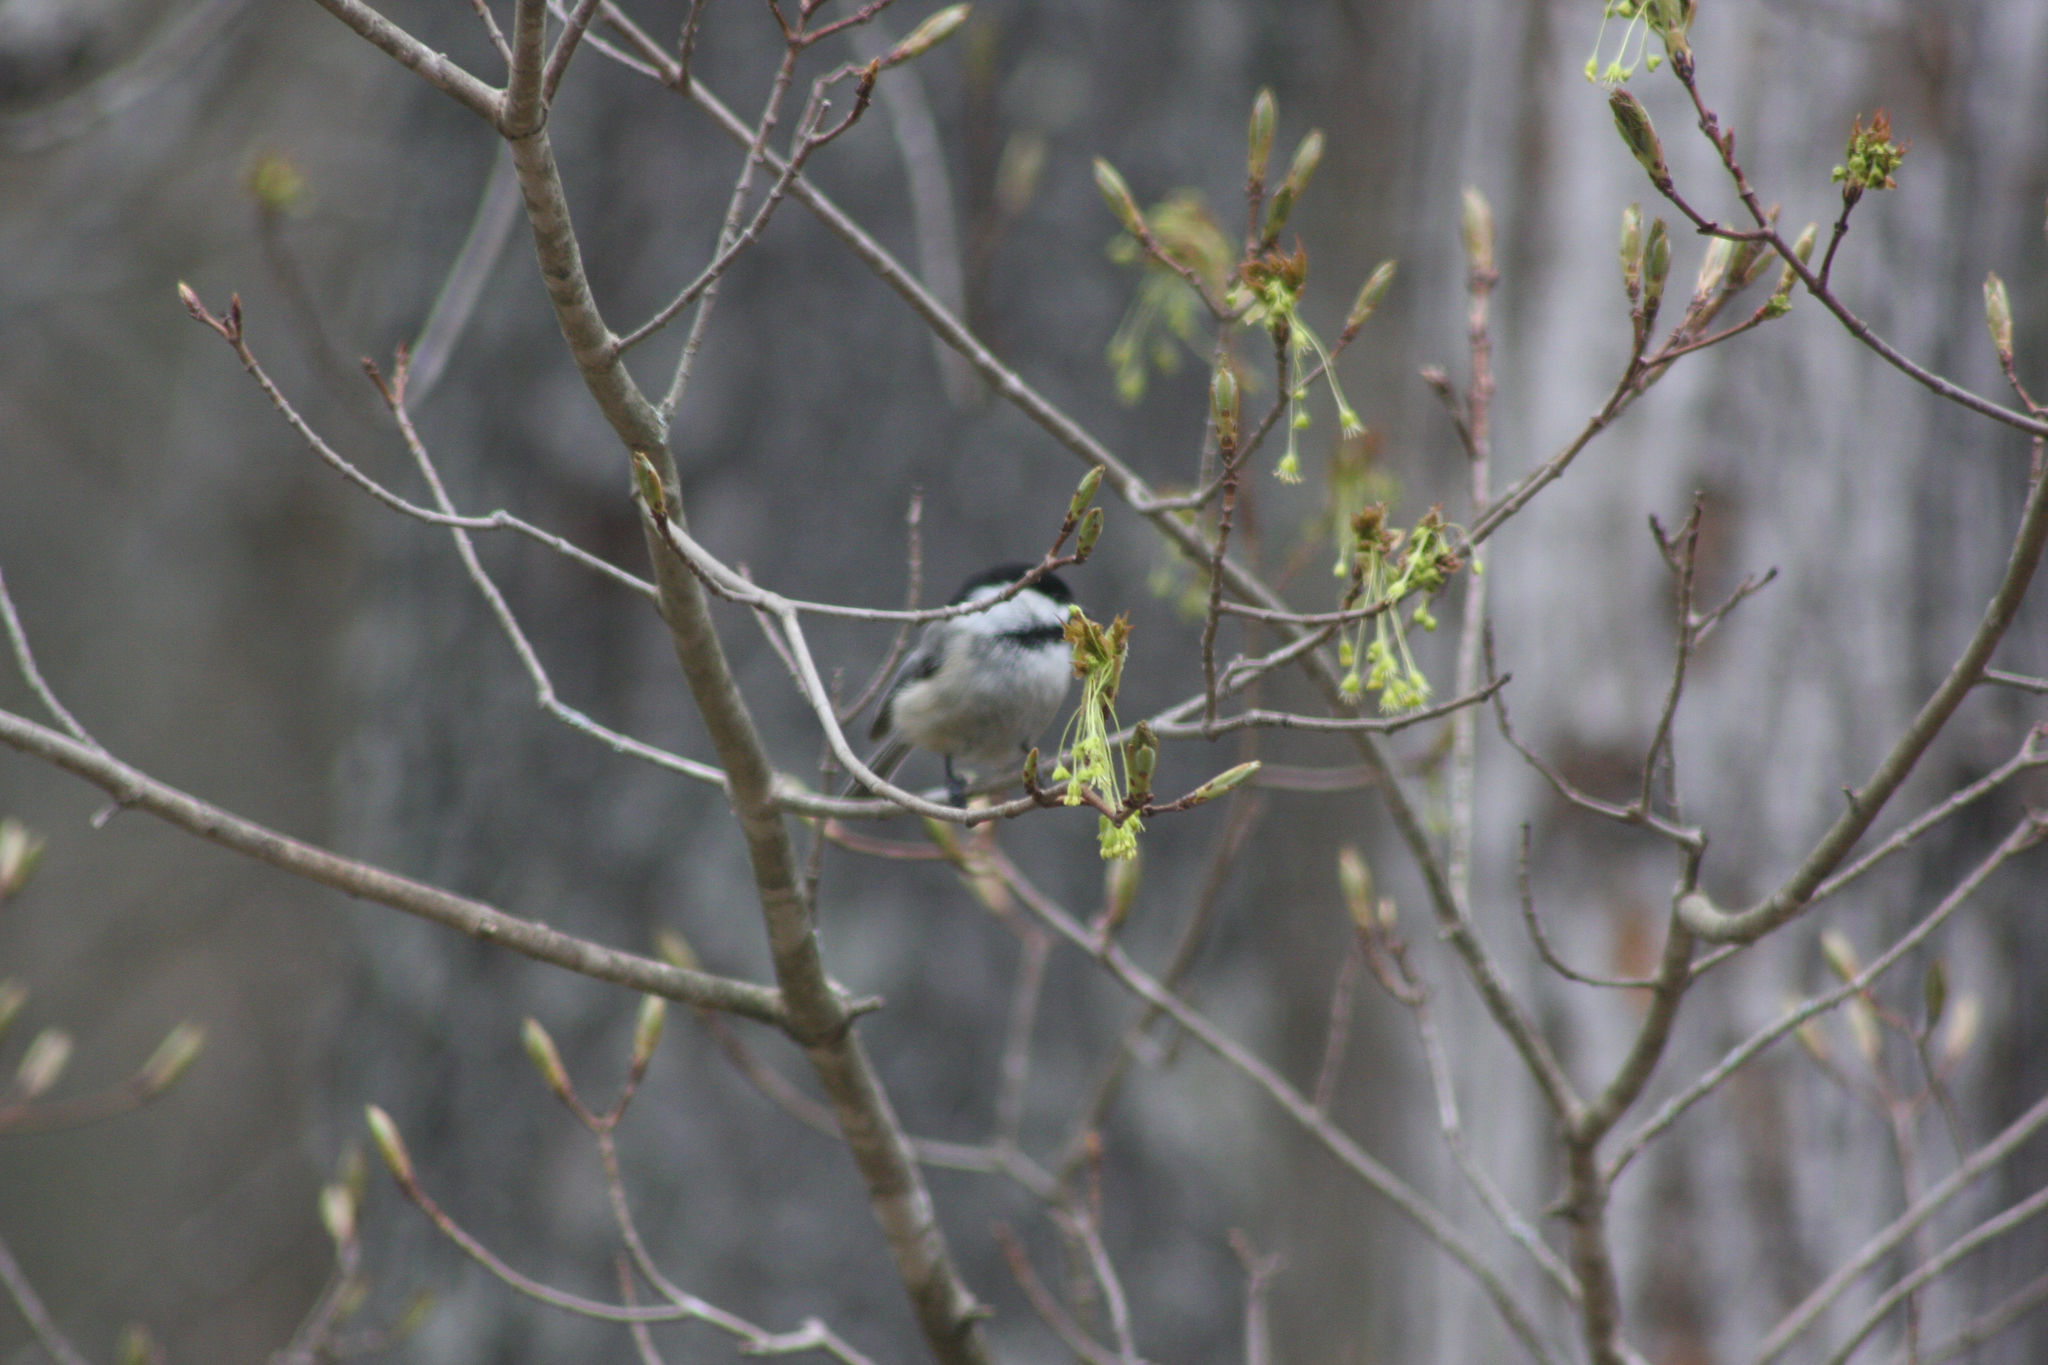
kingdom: Animalia
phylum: Chordata
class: Aves
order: Passeriformes
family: Paridae
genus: Poecile
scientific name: Poecile atricapillus
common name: Black-capped chickadee
